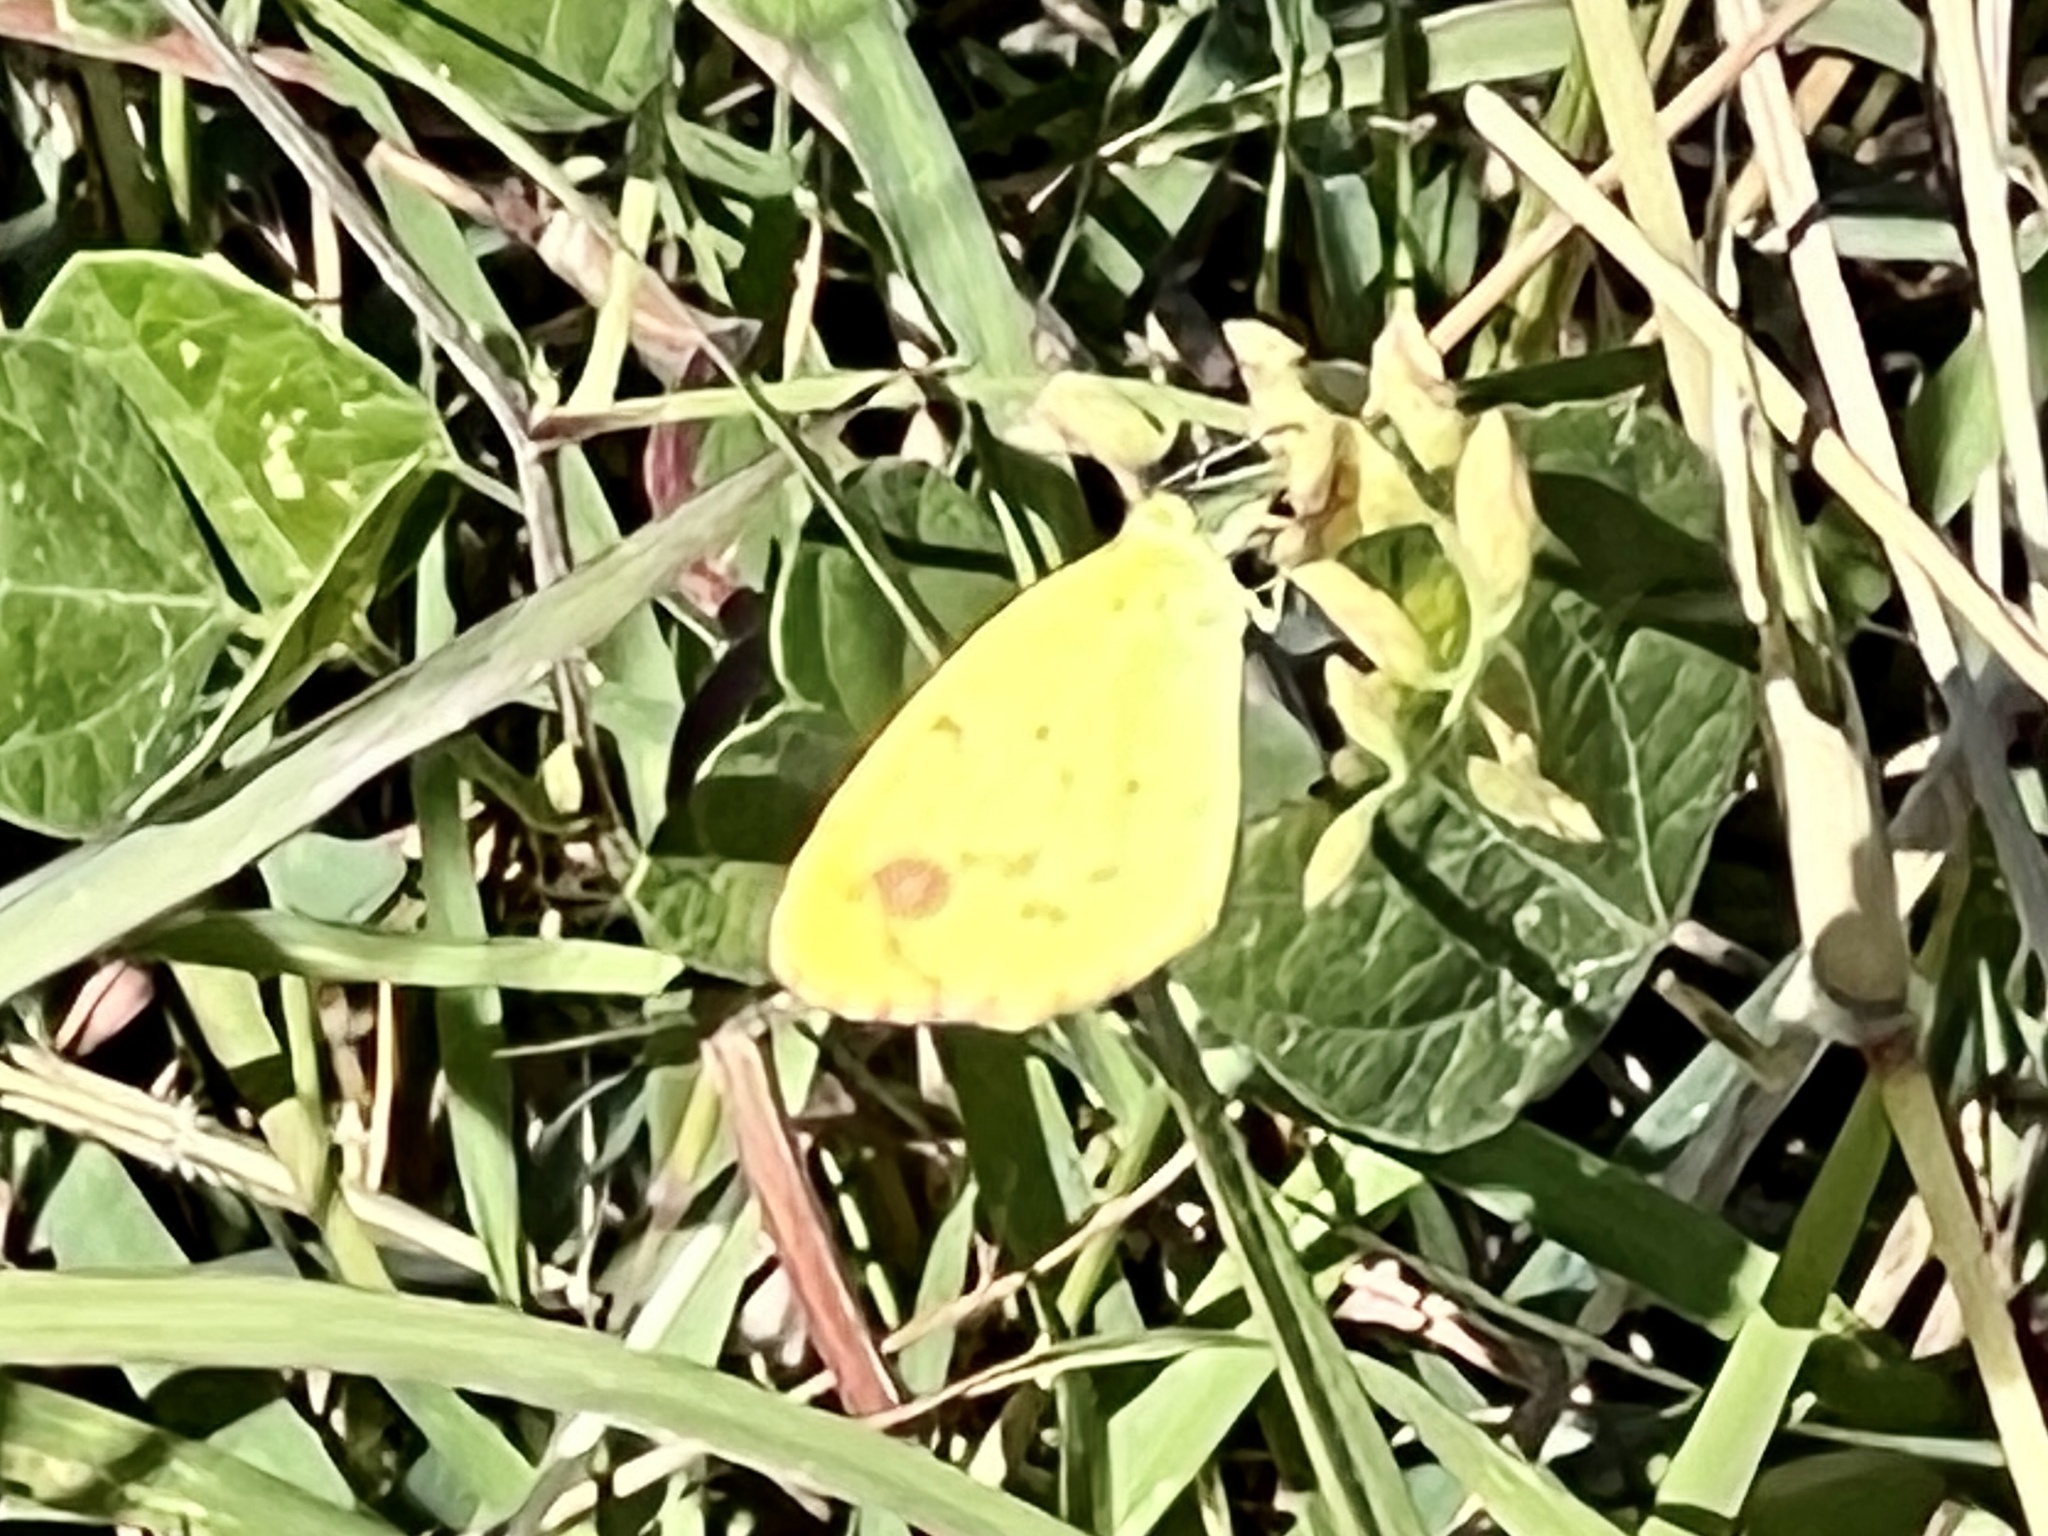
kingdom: Animalia
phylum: Arthropoda
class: Insecta
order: Lepidoptera
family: Pieridae
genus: Pyrisitia
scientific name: Pyrisitia lisa
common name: Little yellow
